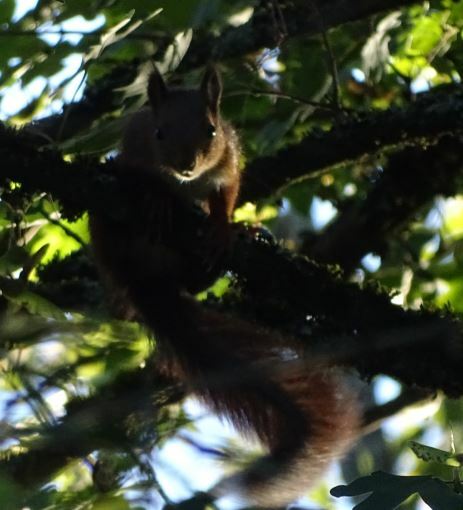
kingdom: Animalia
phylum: Chordata
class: Mammalia
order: Rodentia
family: Sciuridae
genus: Sciurus
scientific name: Sciurus vulgaris
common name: Eurasian red squirrel
